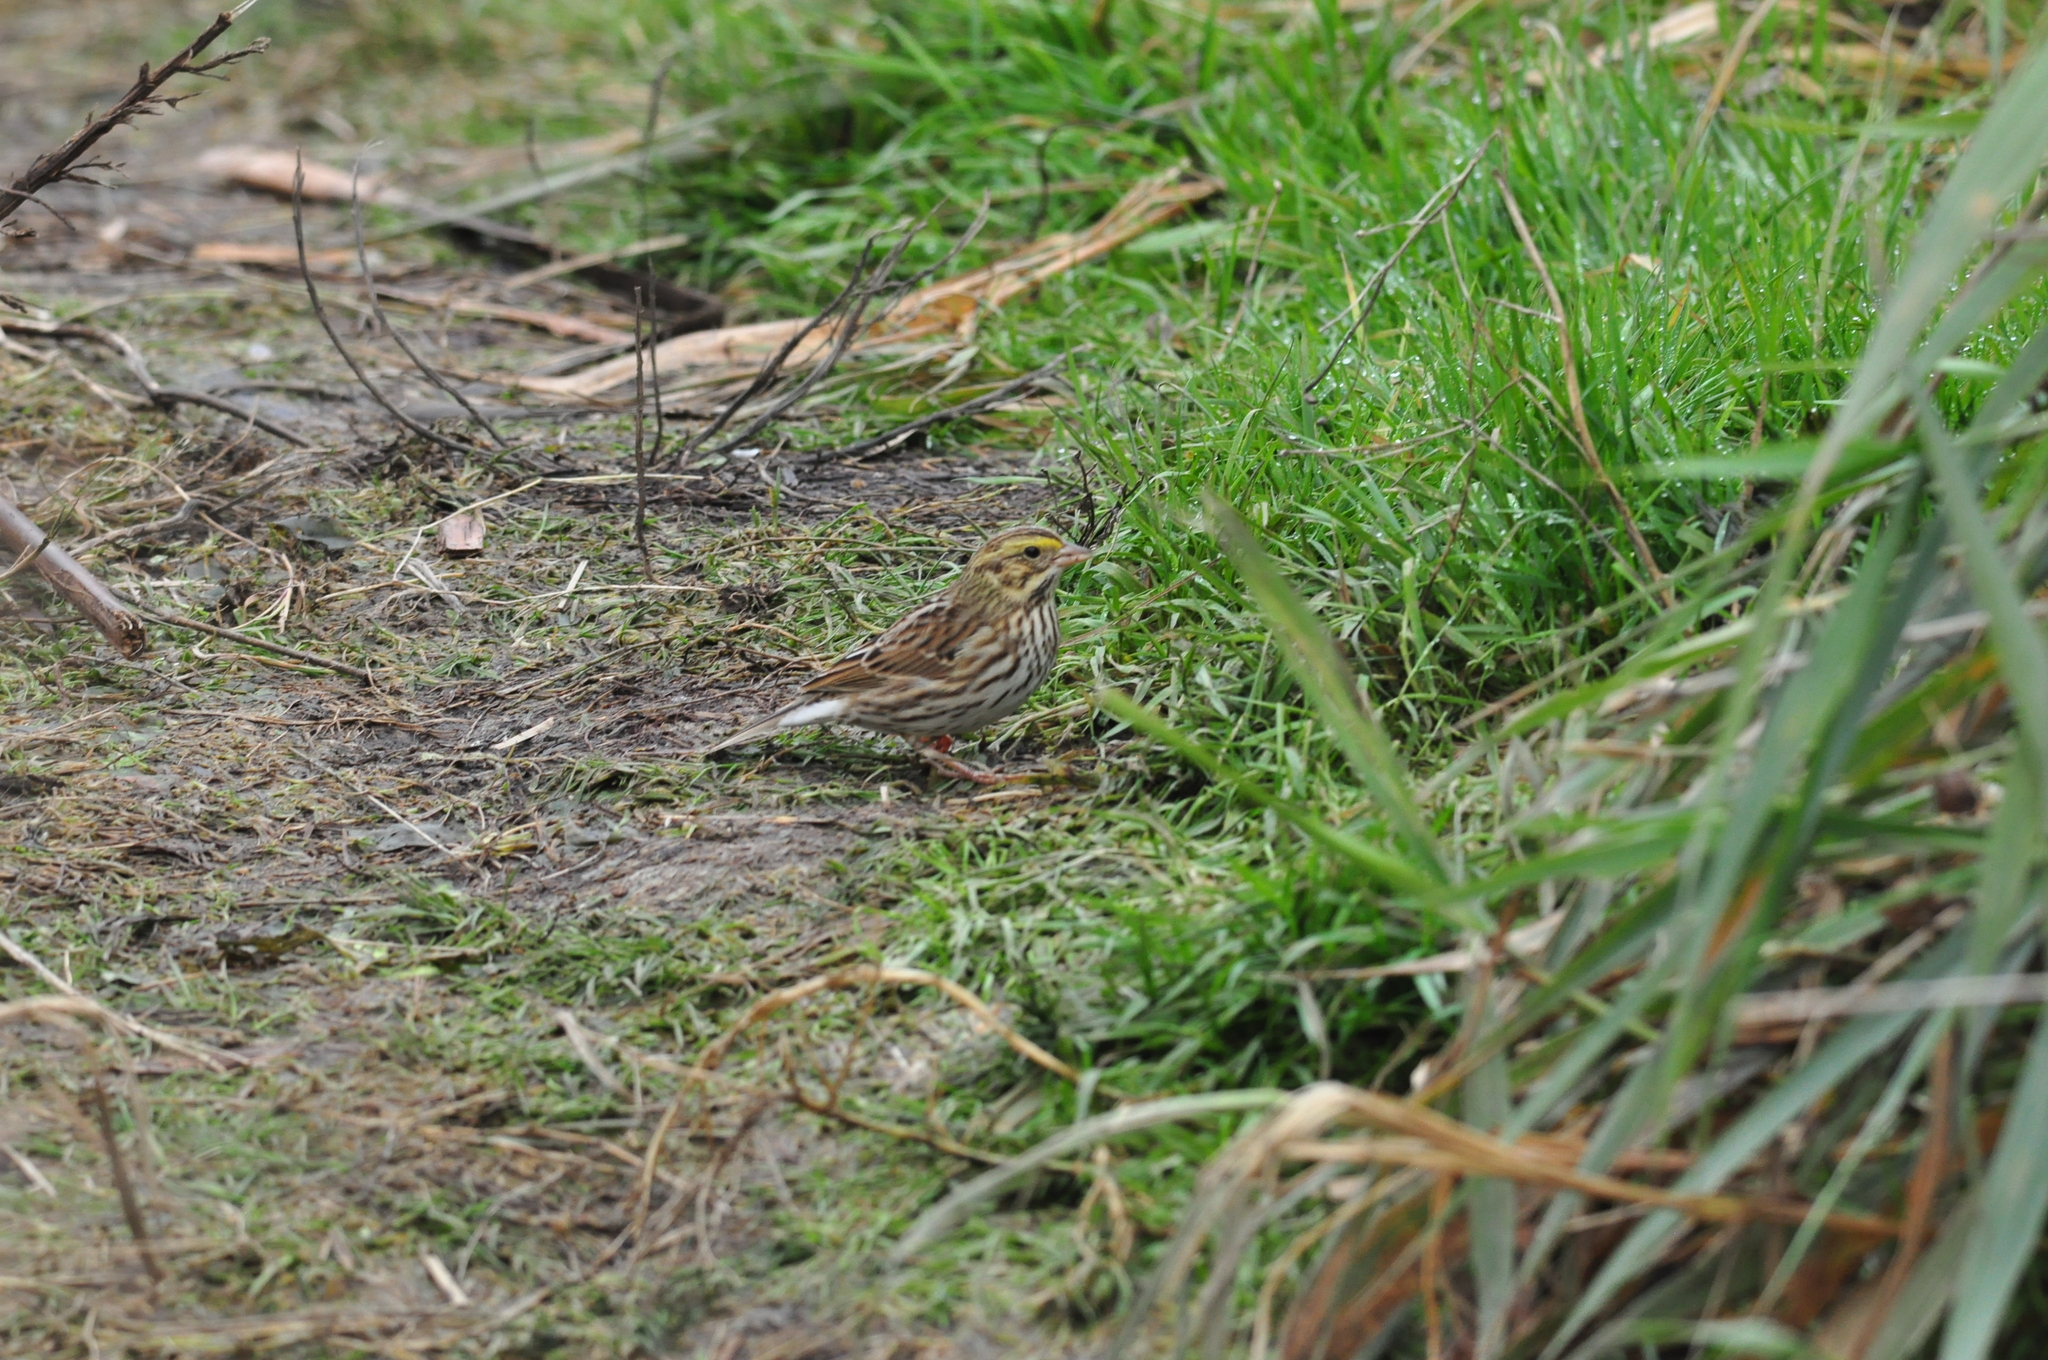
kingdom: Animalia
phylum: Chordata
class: Aves
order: Passeriformes
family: Passerellidae
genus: Passerculus
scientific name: Passerculus sandwichensis
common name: Savannah sparrow
